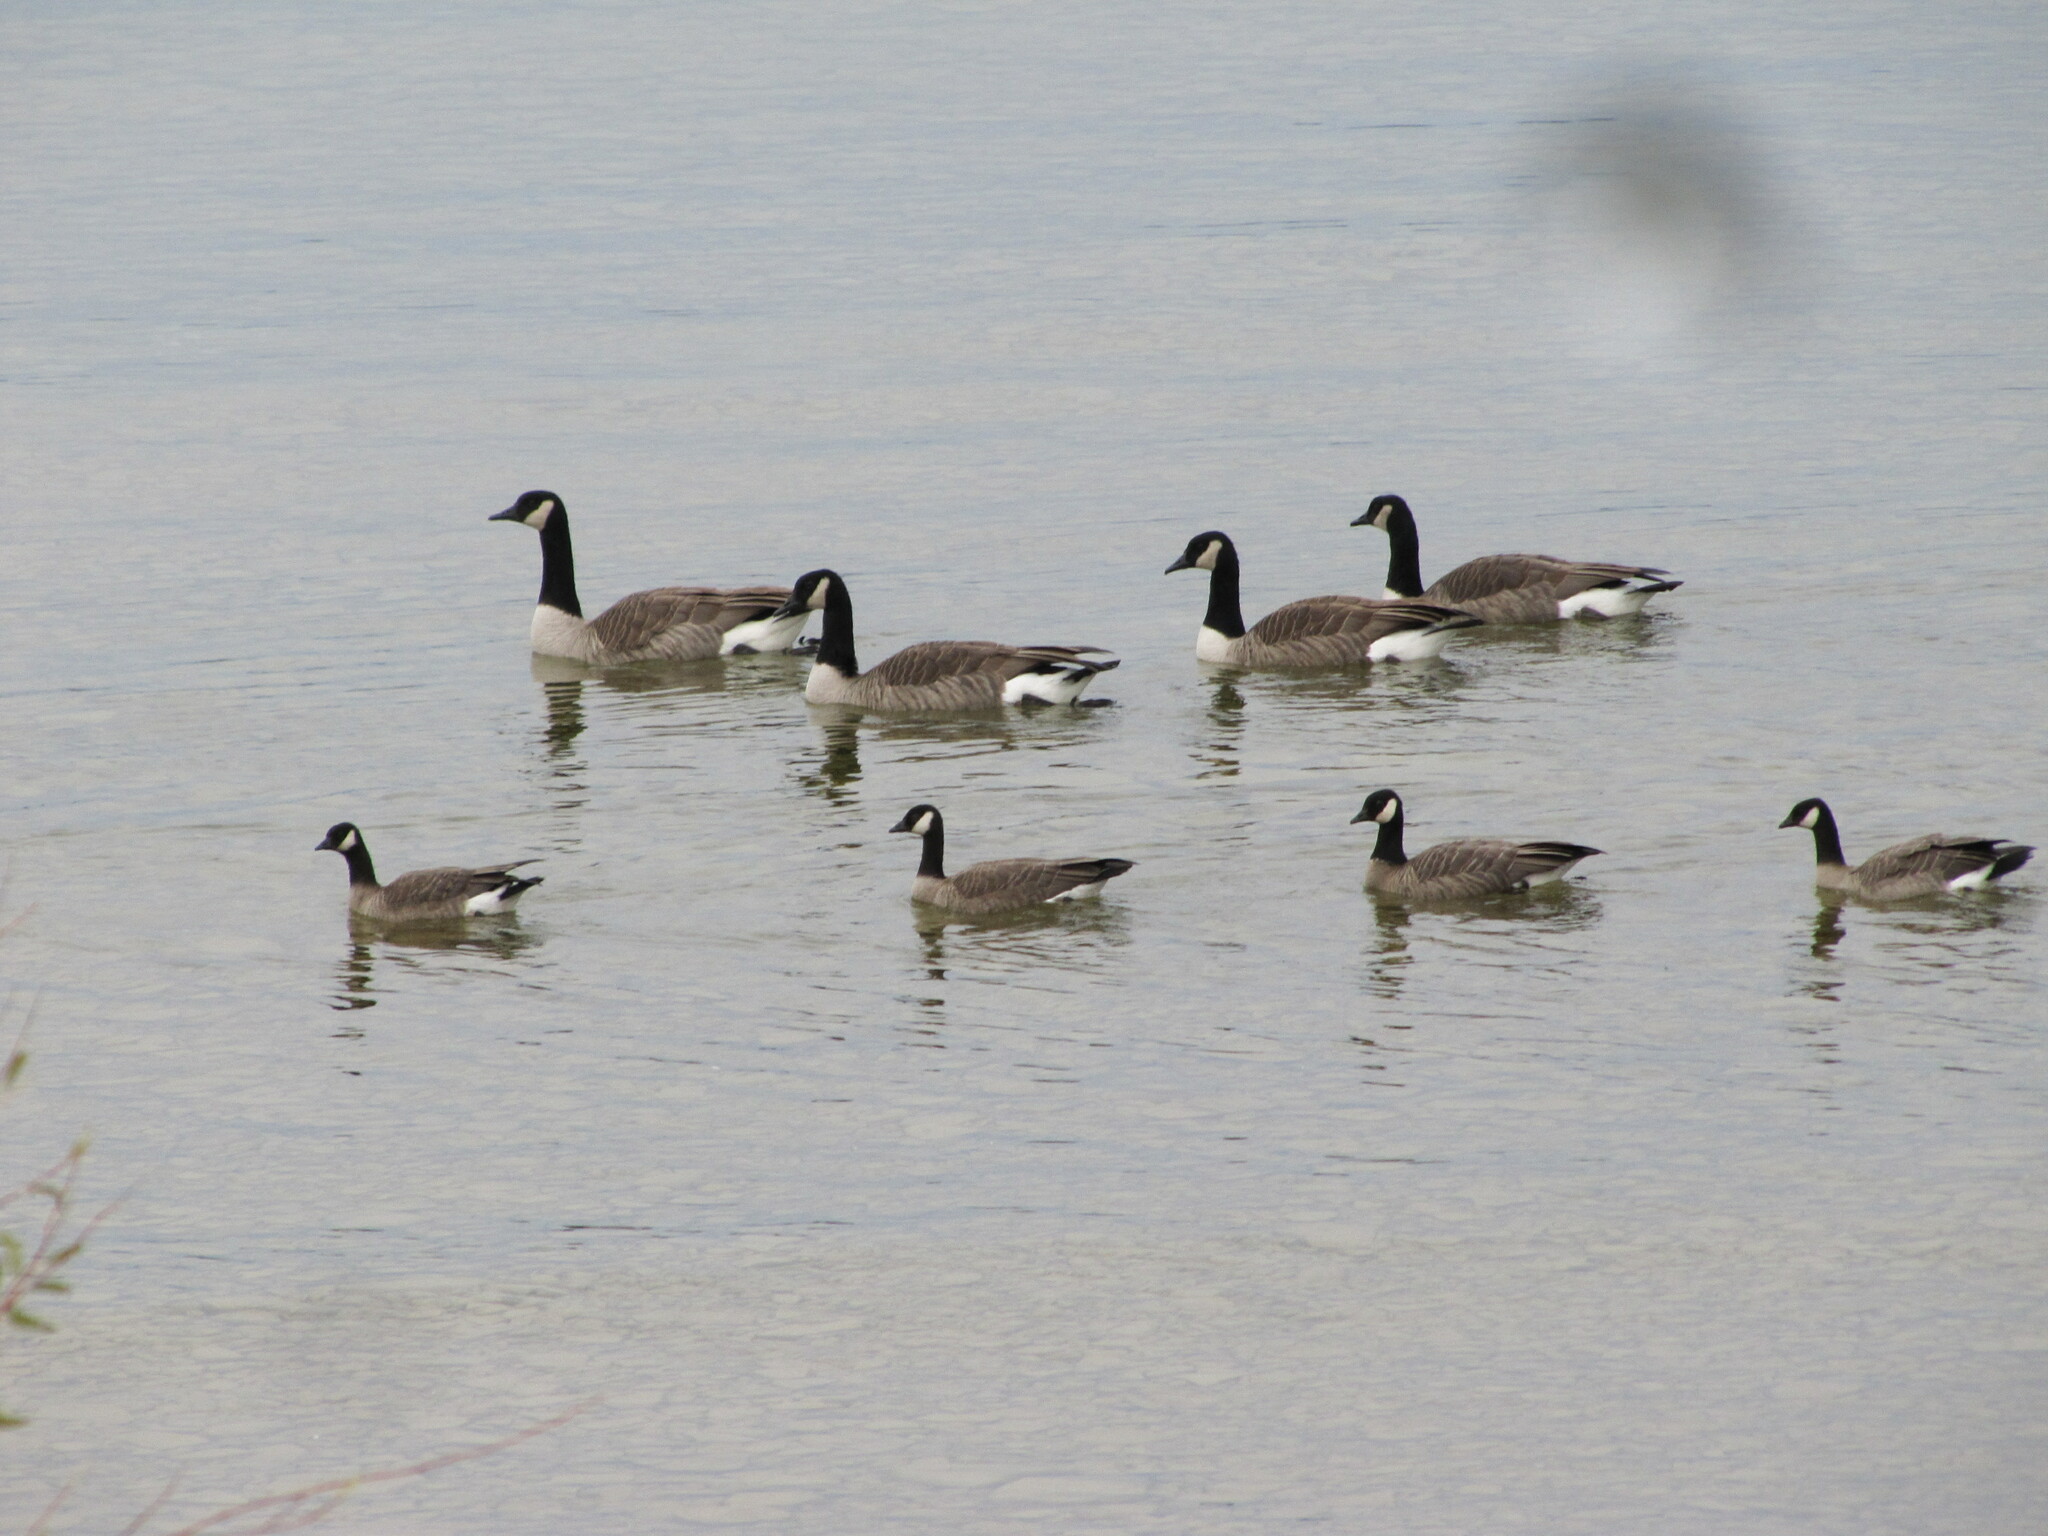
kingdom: Animalia
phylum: Chordata
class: Aves
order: Anseriformes
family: Anatidae
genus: Branta
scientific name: Branta hutchinsii
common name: Cackling goose
